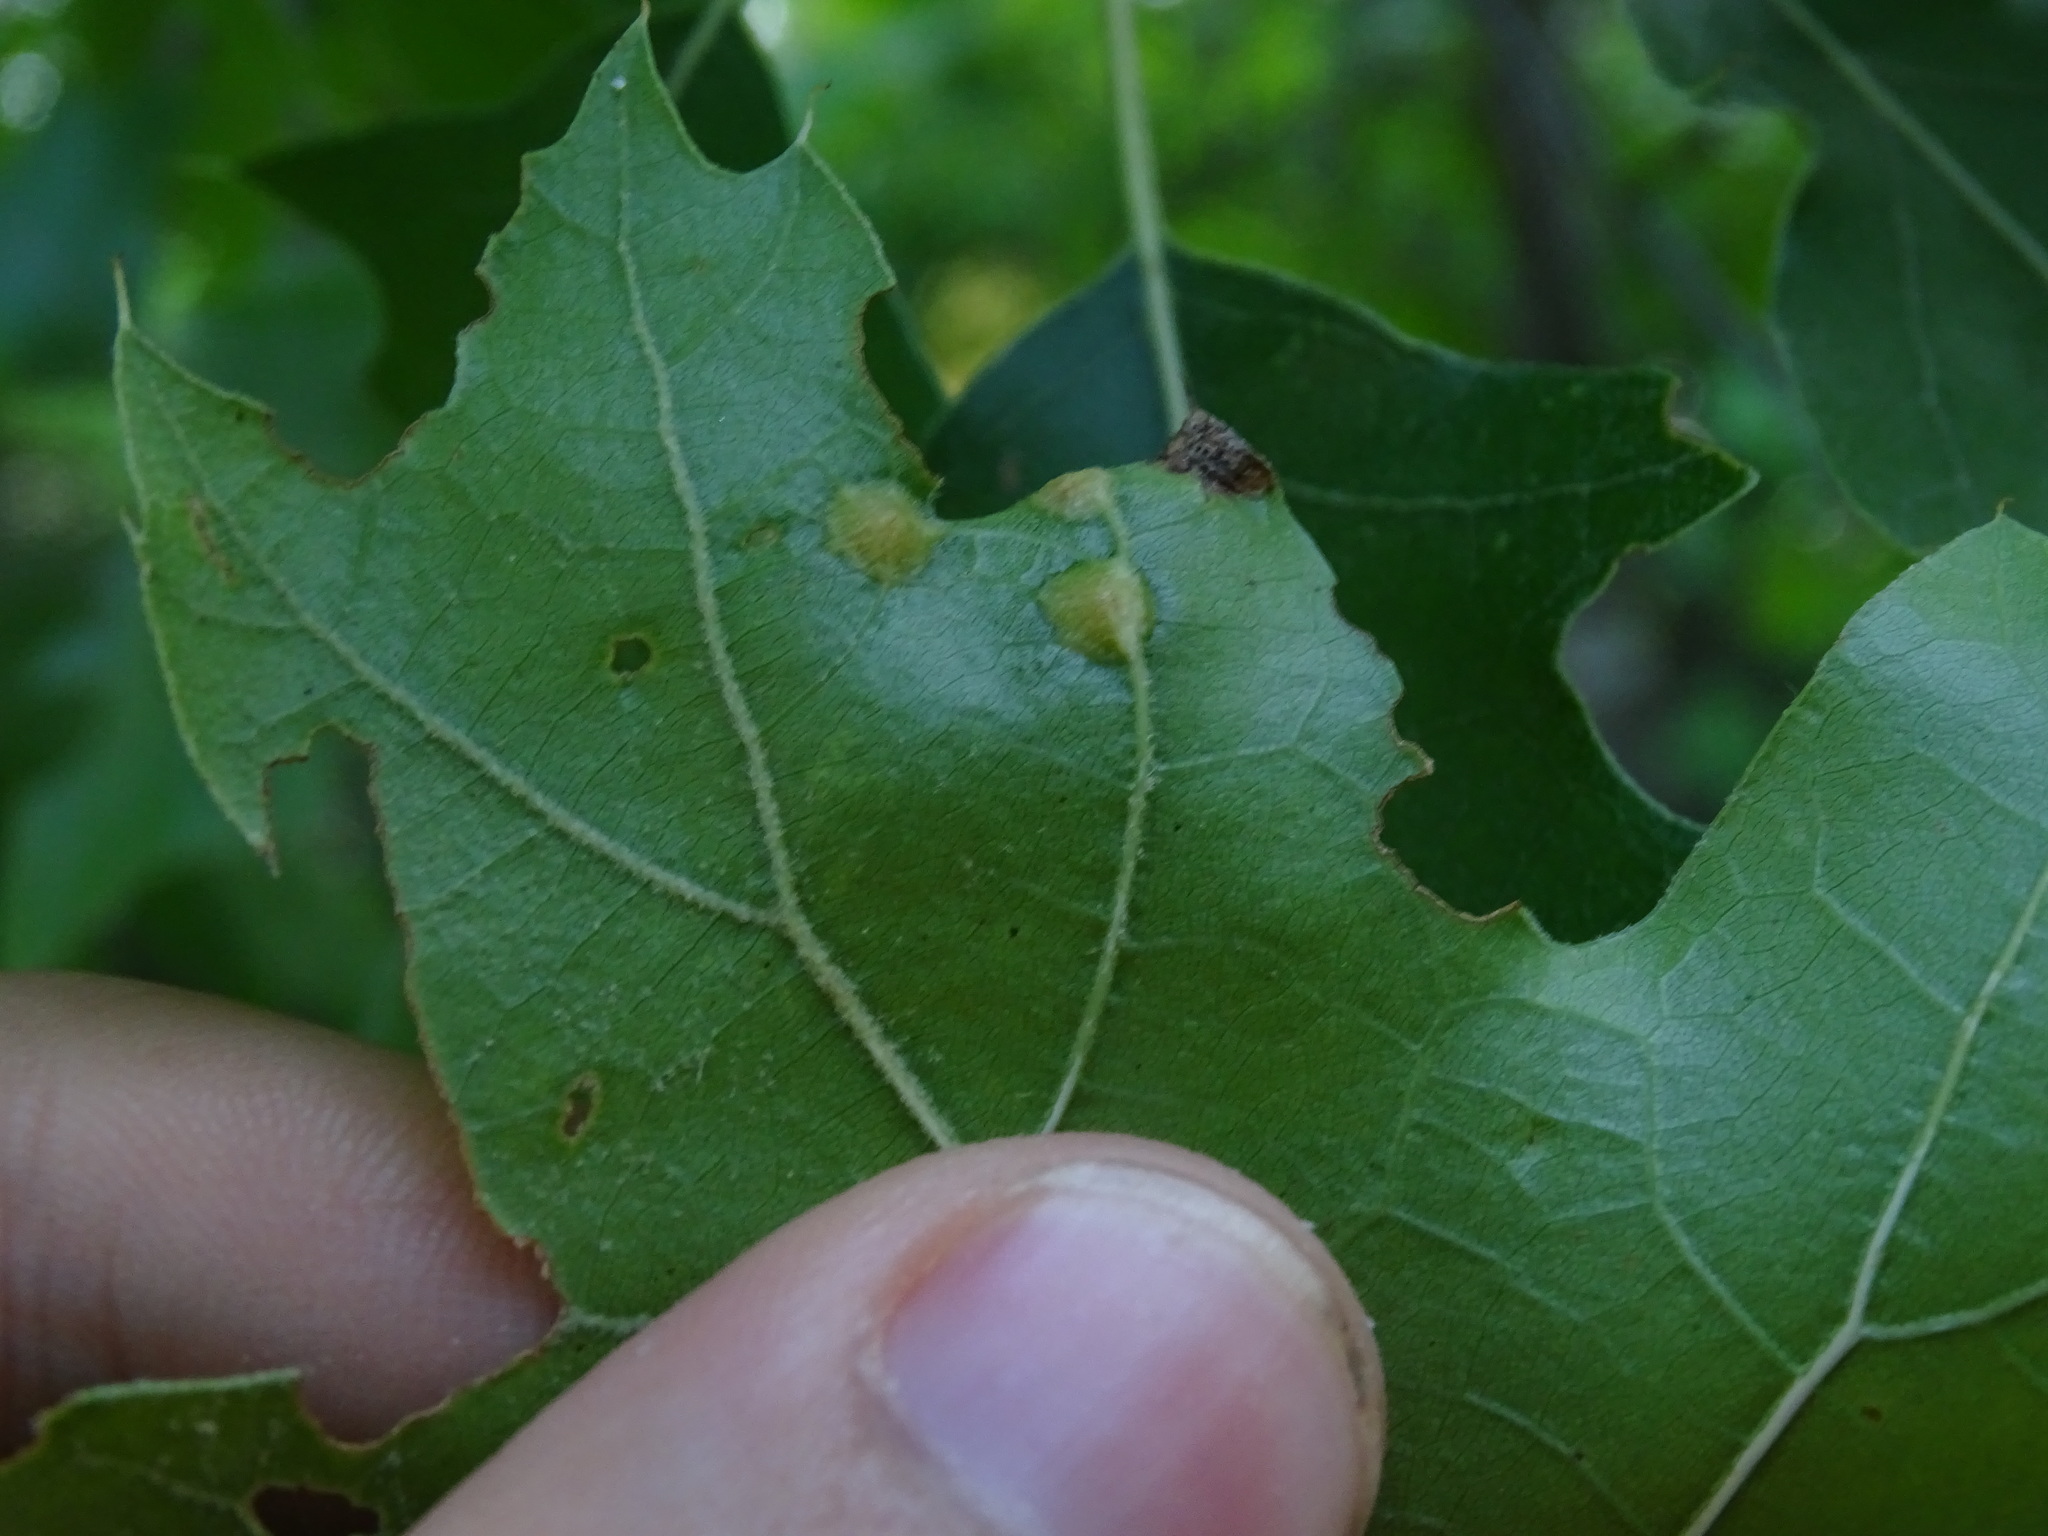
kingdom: Animalia
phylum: Arthropoda
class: Insecta
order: Diptera
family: Cecidomyiidae
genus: Polystepha
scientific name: Polystepha pilulae
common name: Oak leaf gall midge
